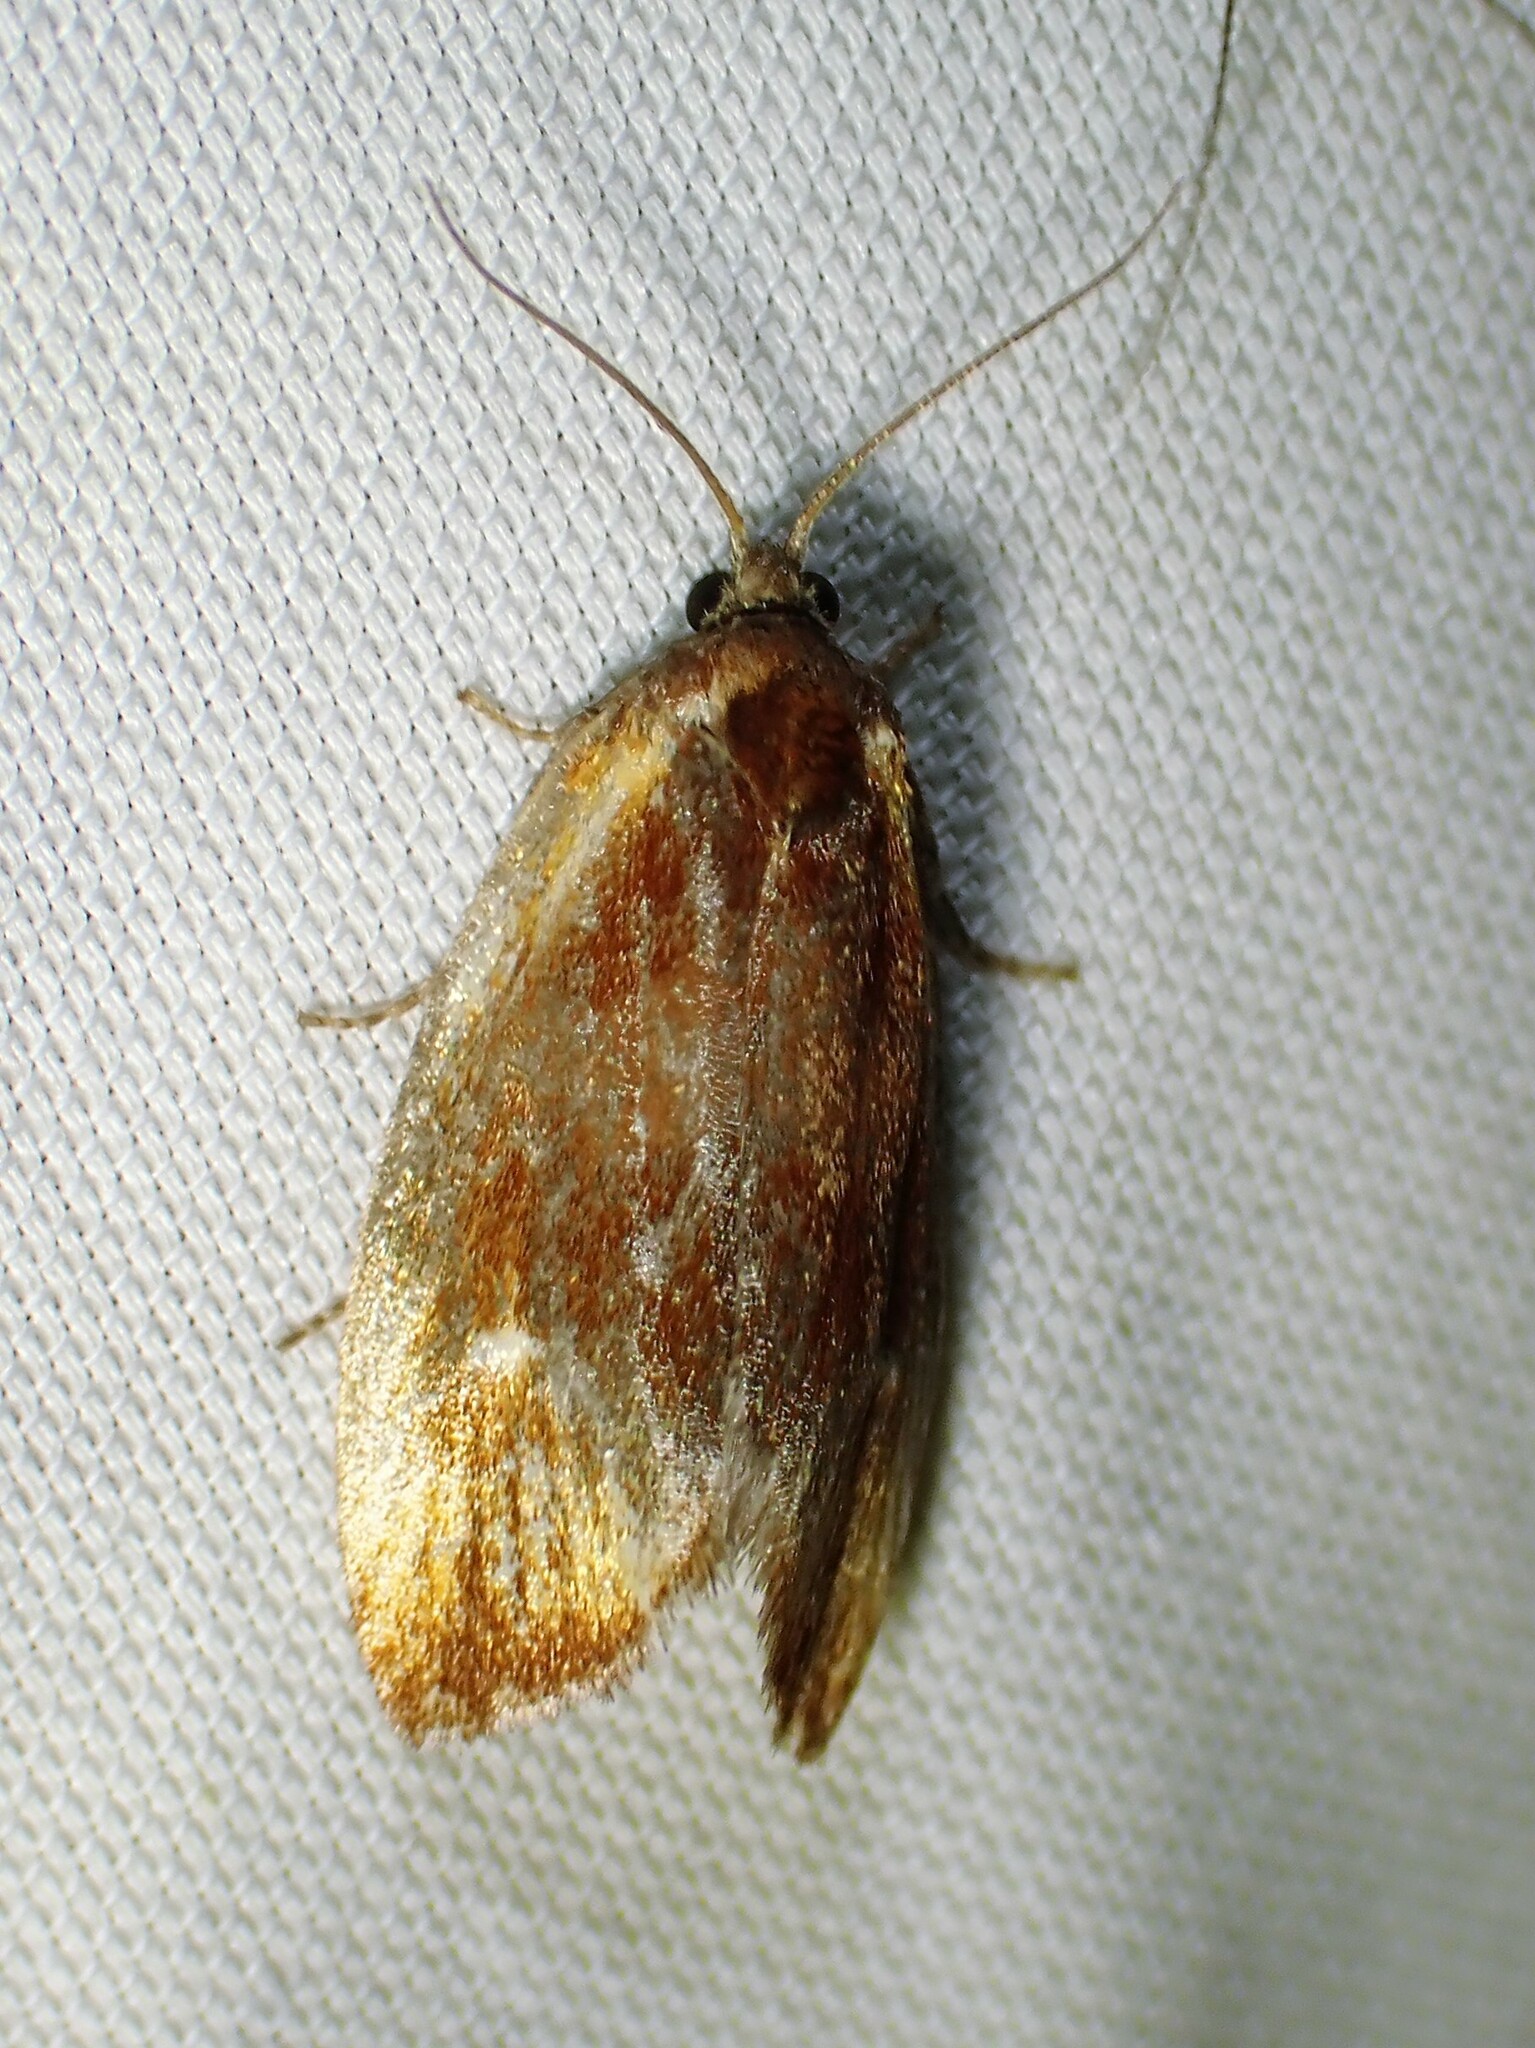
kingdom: Animalia
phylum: Arthropoda
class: Insecta
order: Lepidoptera
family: Tortricidae
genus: Eulia
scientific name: Eulia ministrana
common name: Brassy twist
